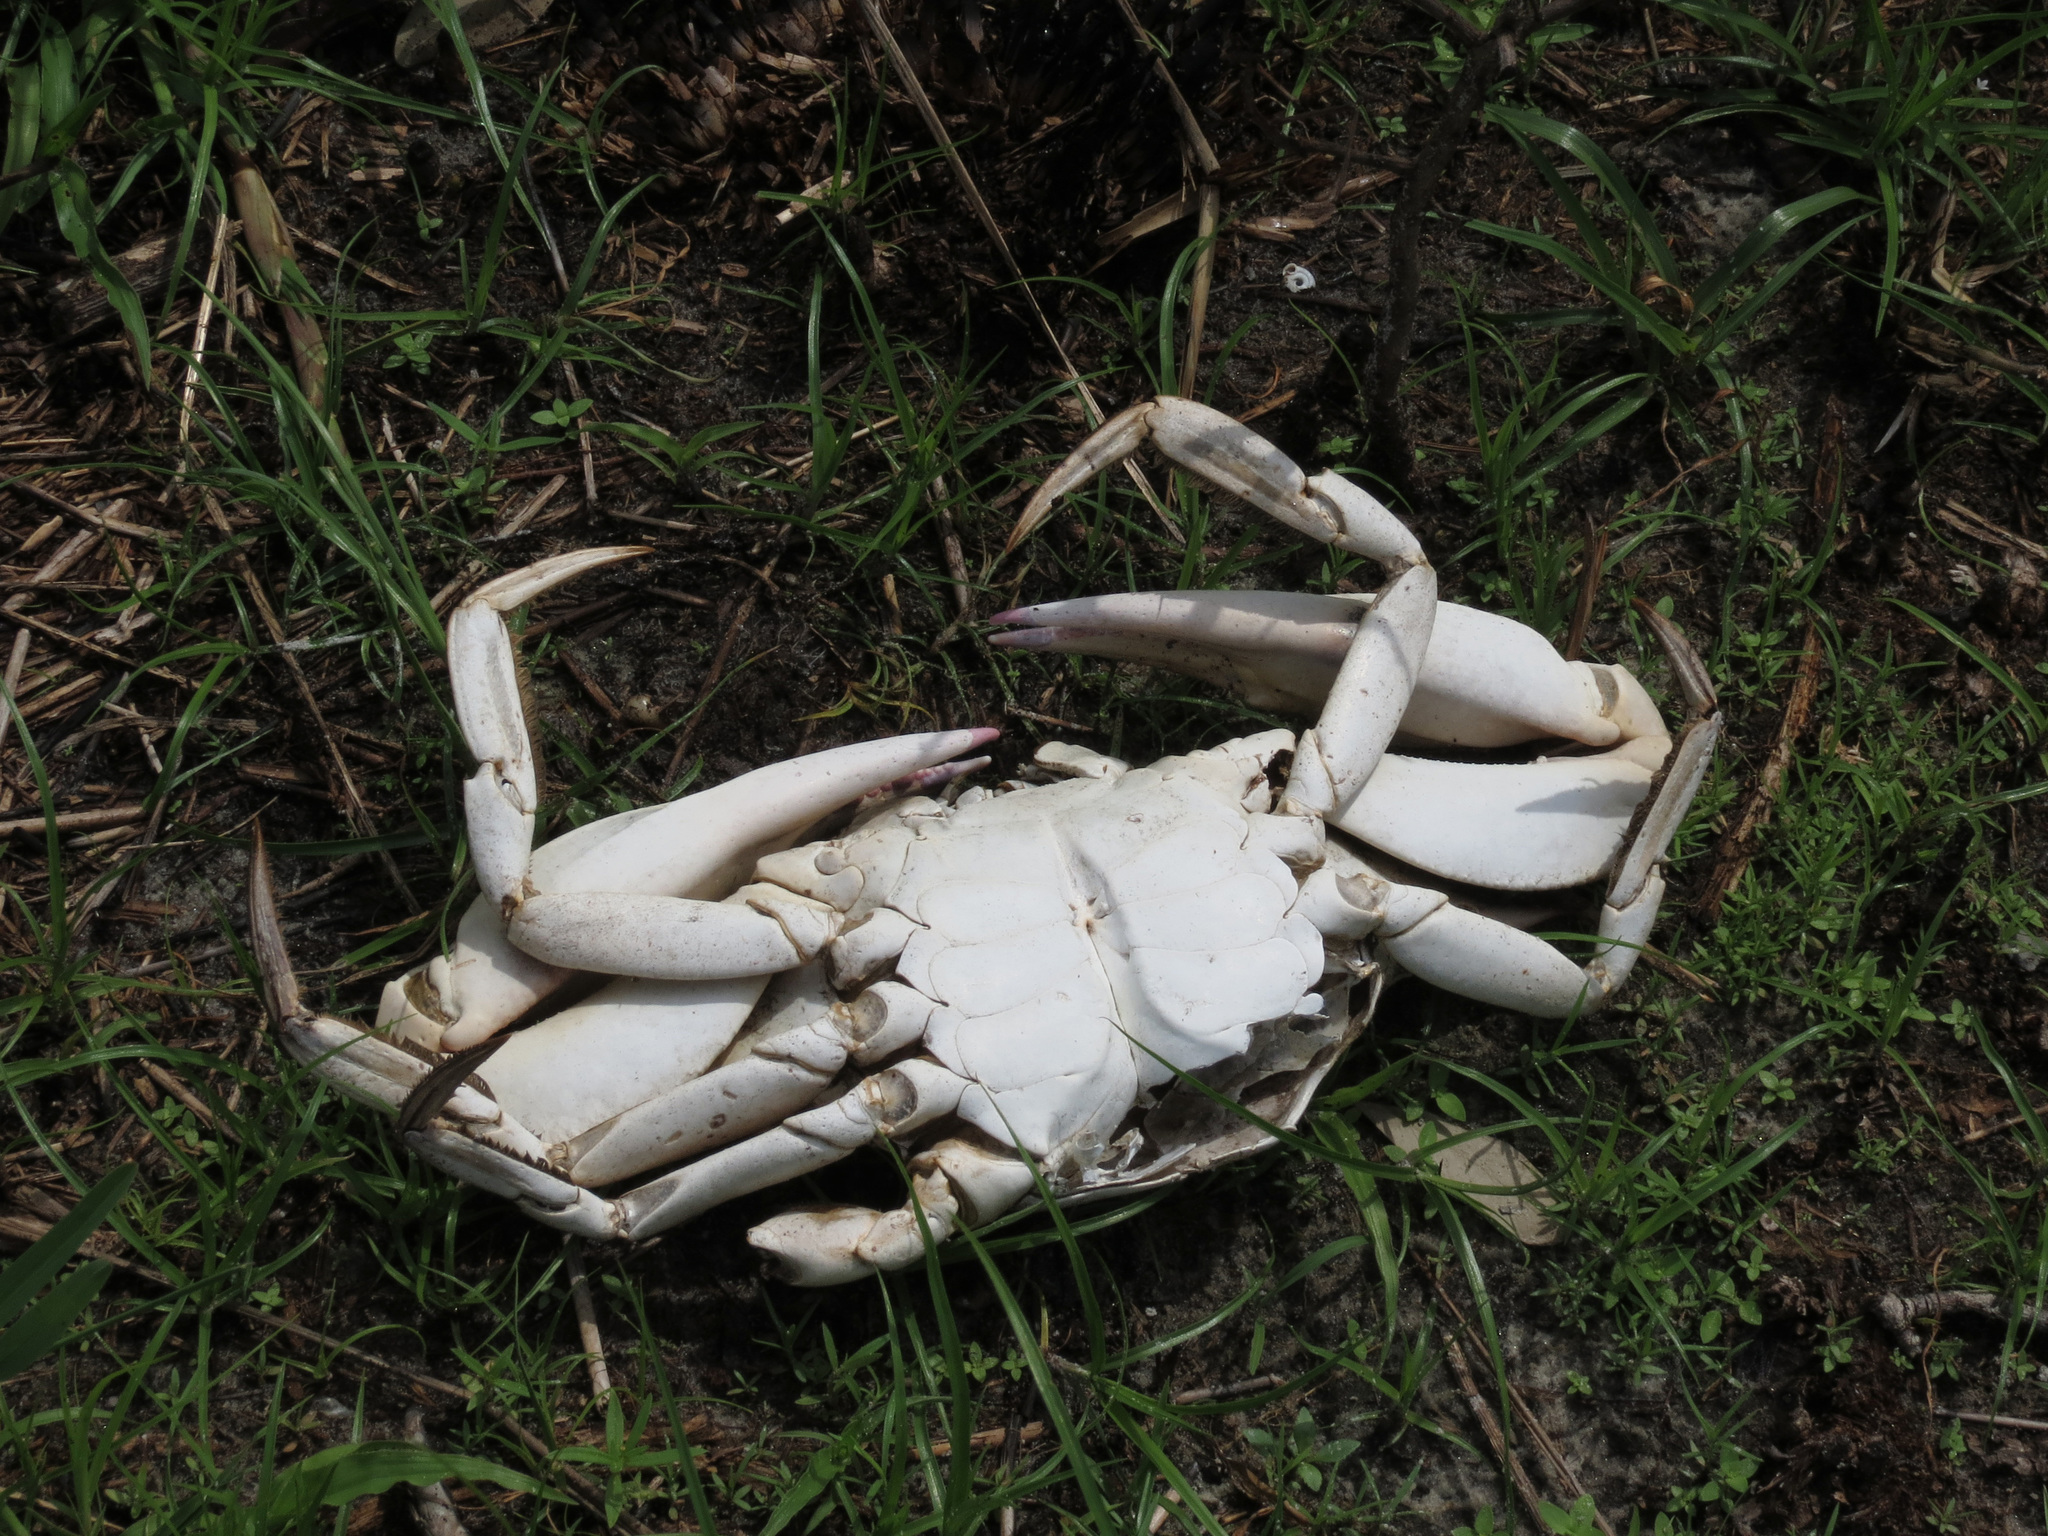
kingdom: Animalia
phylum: Arthropoda
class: Malacostraca
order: Decapoda
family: Portunidae
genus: Callinectes
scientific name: Callinectes sapidus
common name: Blue crab
